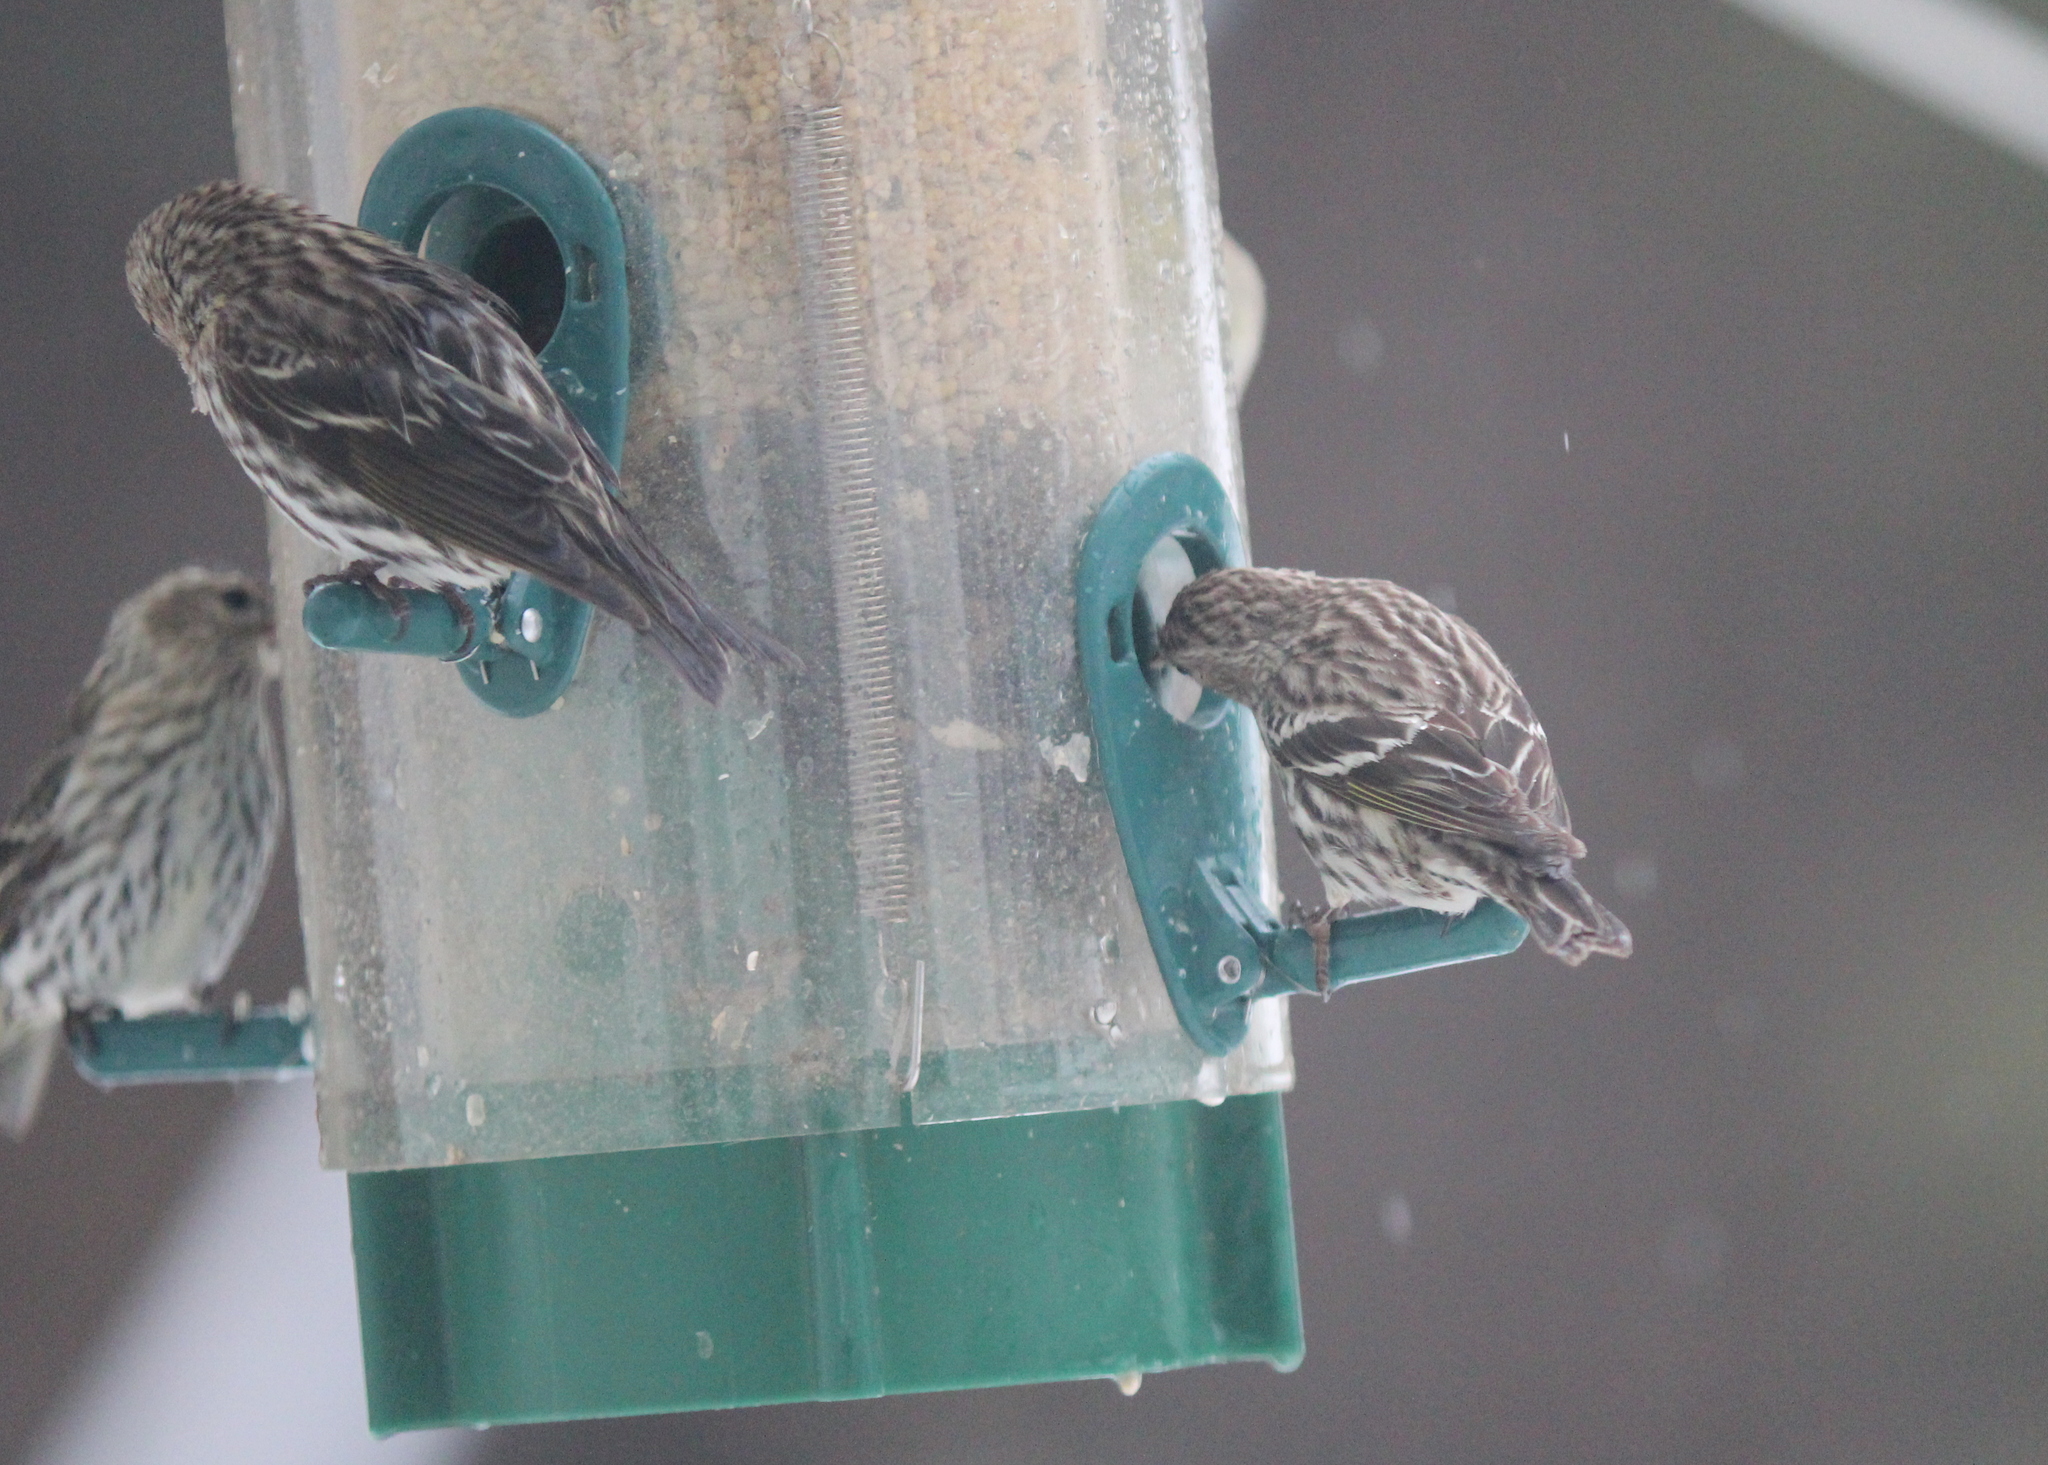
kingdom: Animalia
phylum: Chordata
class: Aves
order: Passeriformes
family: Fringillidae
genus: Spinus
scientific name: Spinus pinus
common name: Pine siskin
